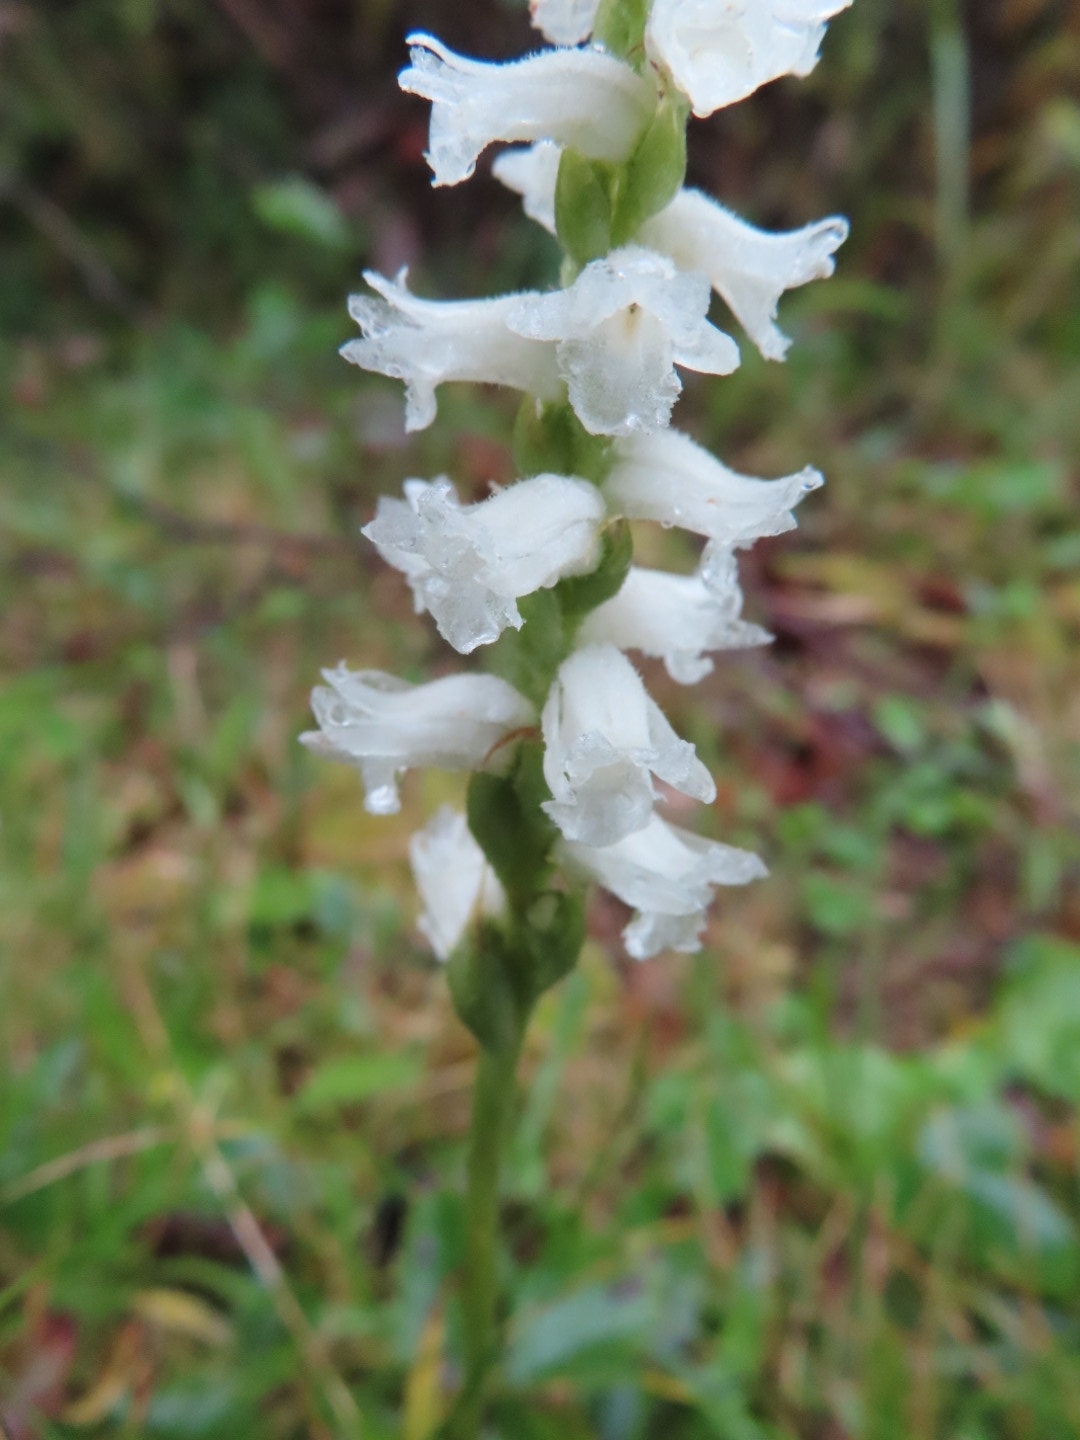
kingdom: Plantae
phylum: Tracheophyta
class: Liliopsida
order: Asparagales
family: Orchidaceae
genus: Spiranthes
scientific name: Spiranthes cernua
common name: Dropping ladies'-tresses
